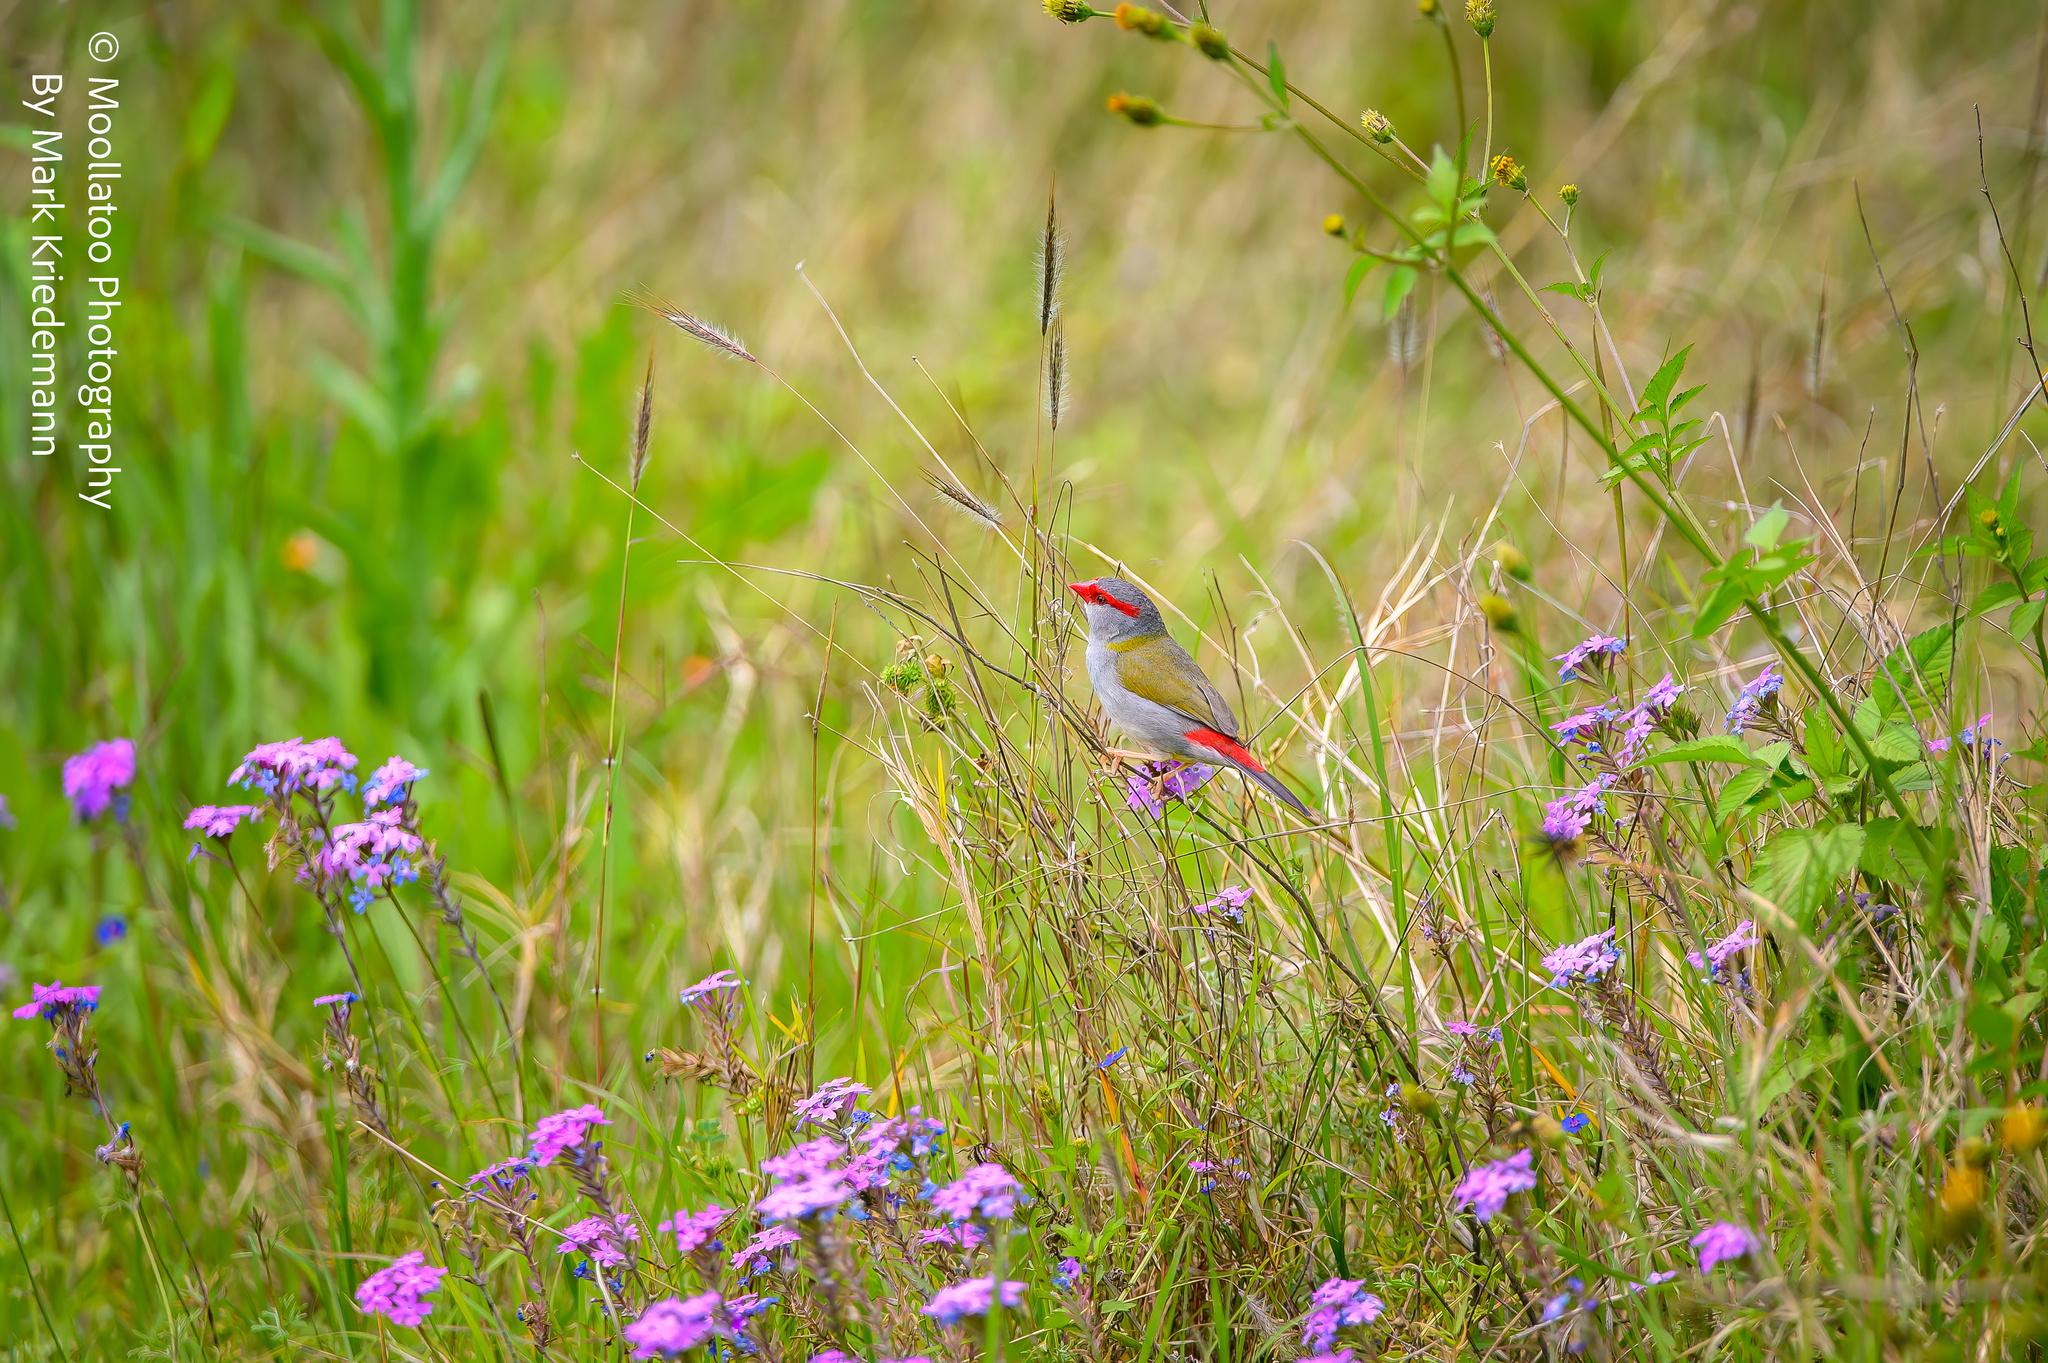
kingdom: Animalia
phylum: Chordata
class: Aves
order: Passeriformes
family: Estrildidae
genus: Neochmia
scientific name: Neochmia temporalis
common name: Red-browed finch
